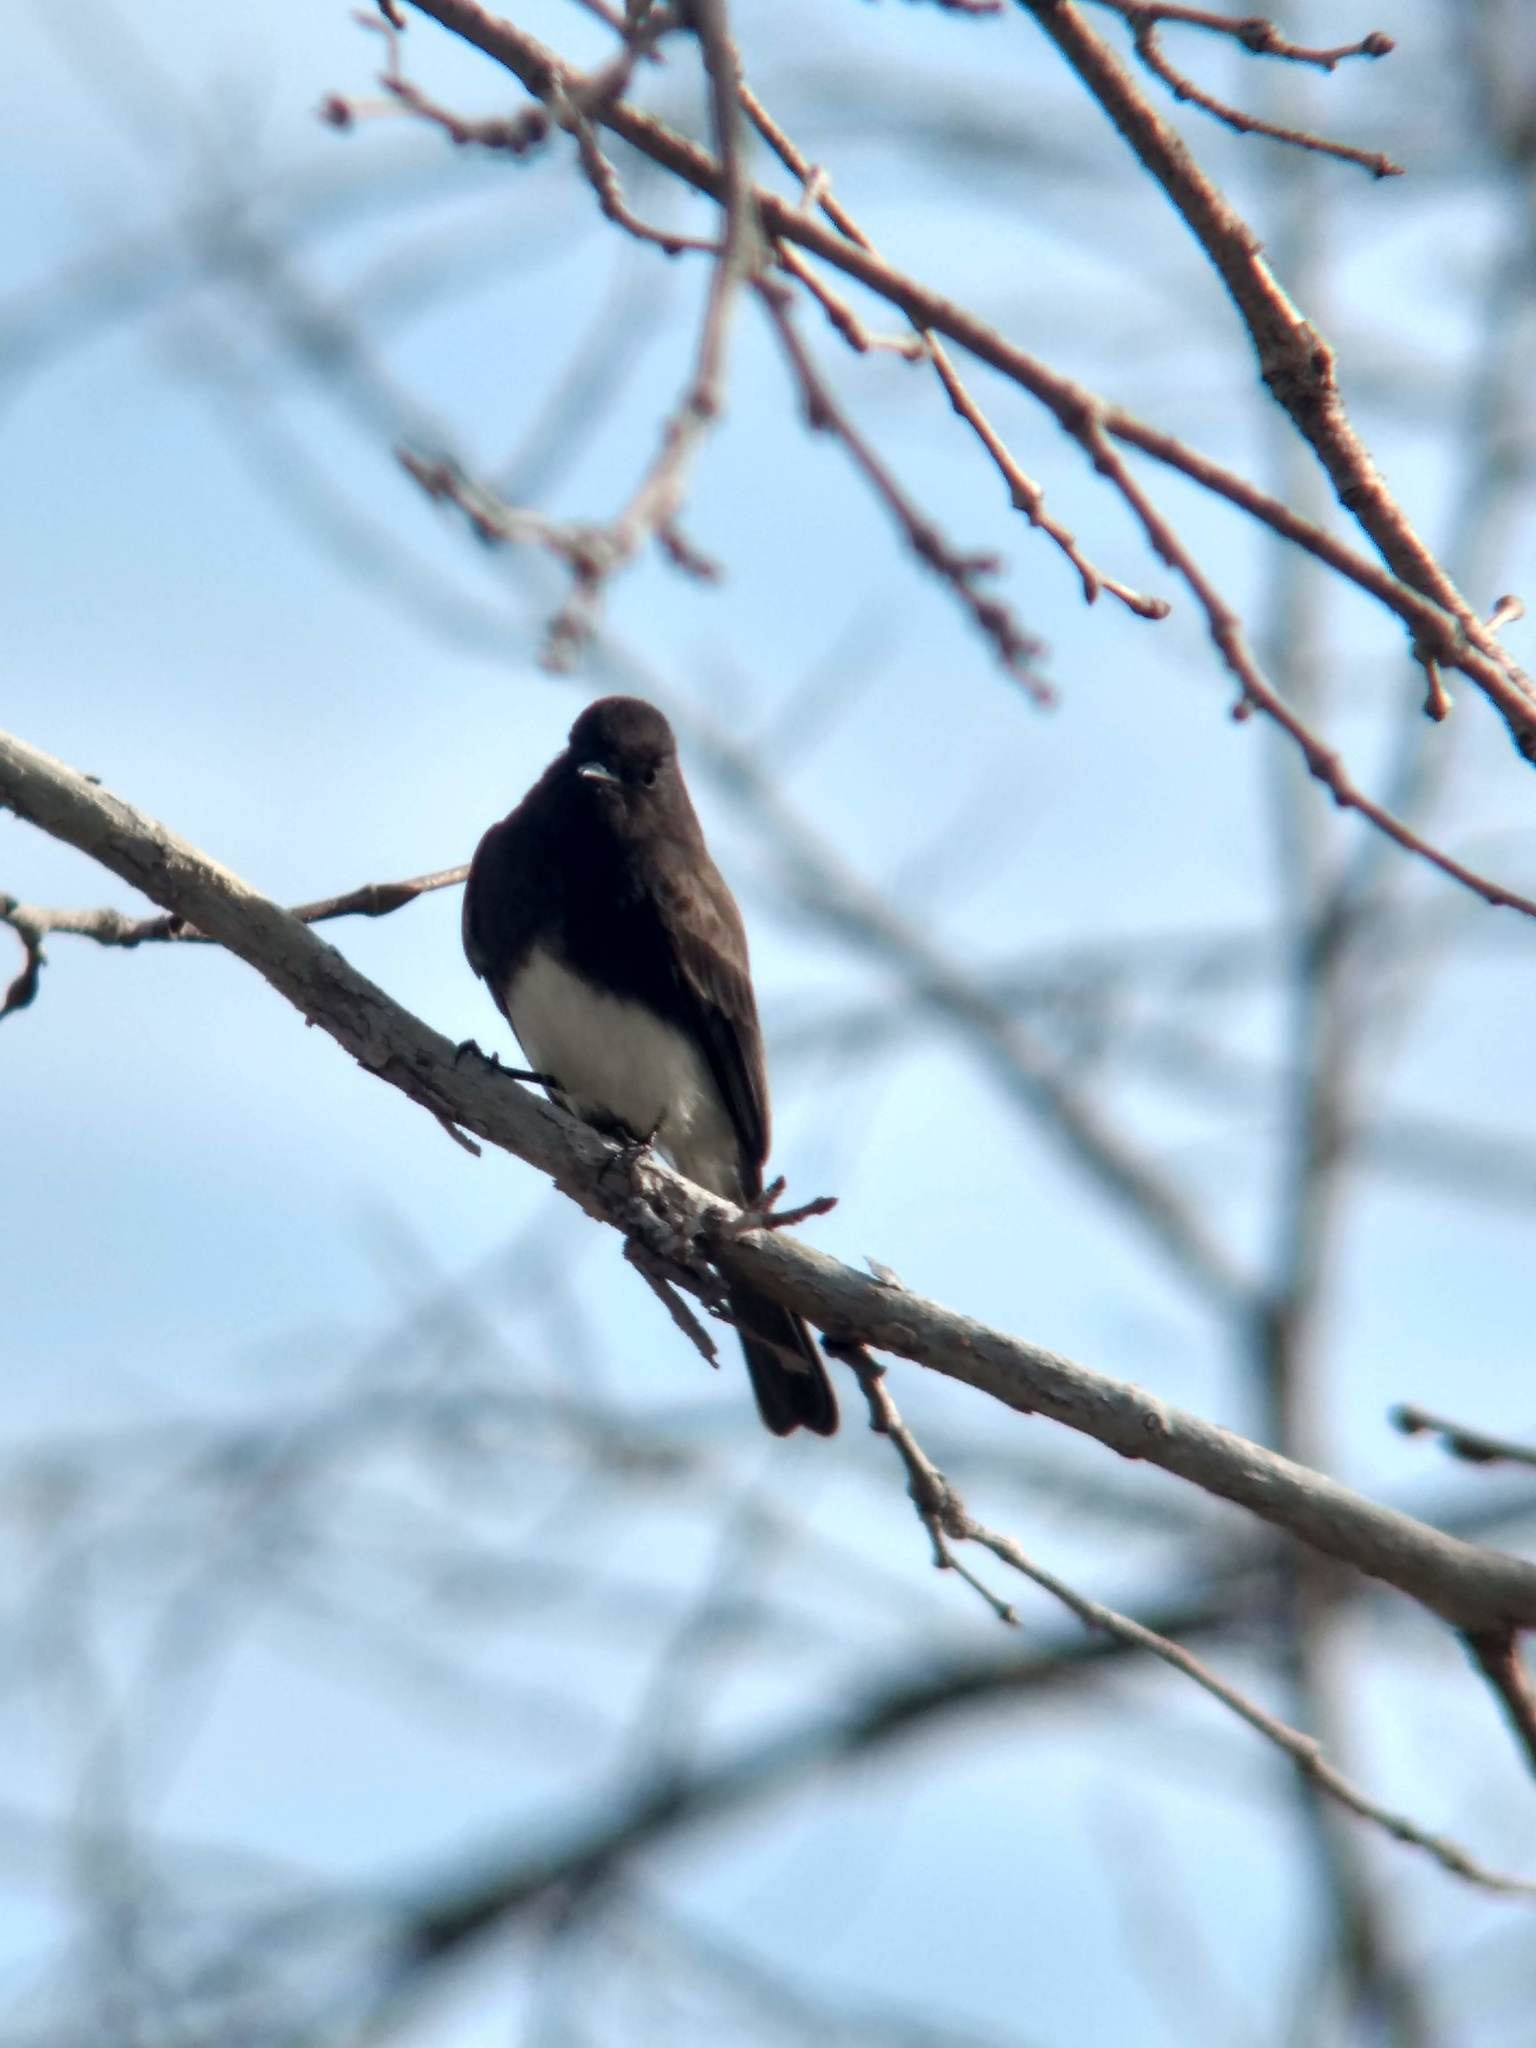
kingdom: Animalia
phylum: Chordata
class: Aves
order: Passeriformes
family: Tyrannidae
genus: Sayornis
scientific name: Sayornis nigricans
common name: Black phoebe
